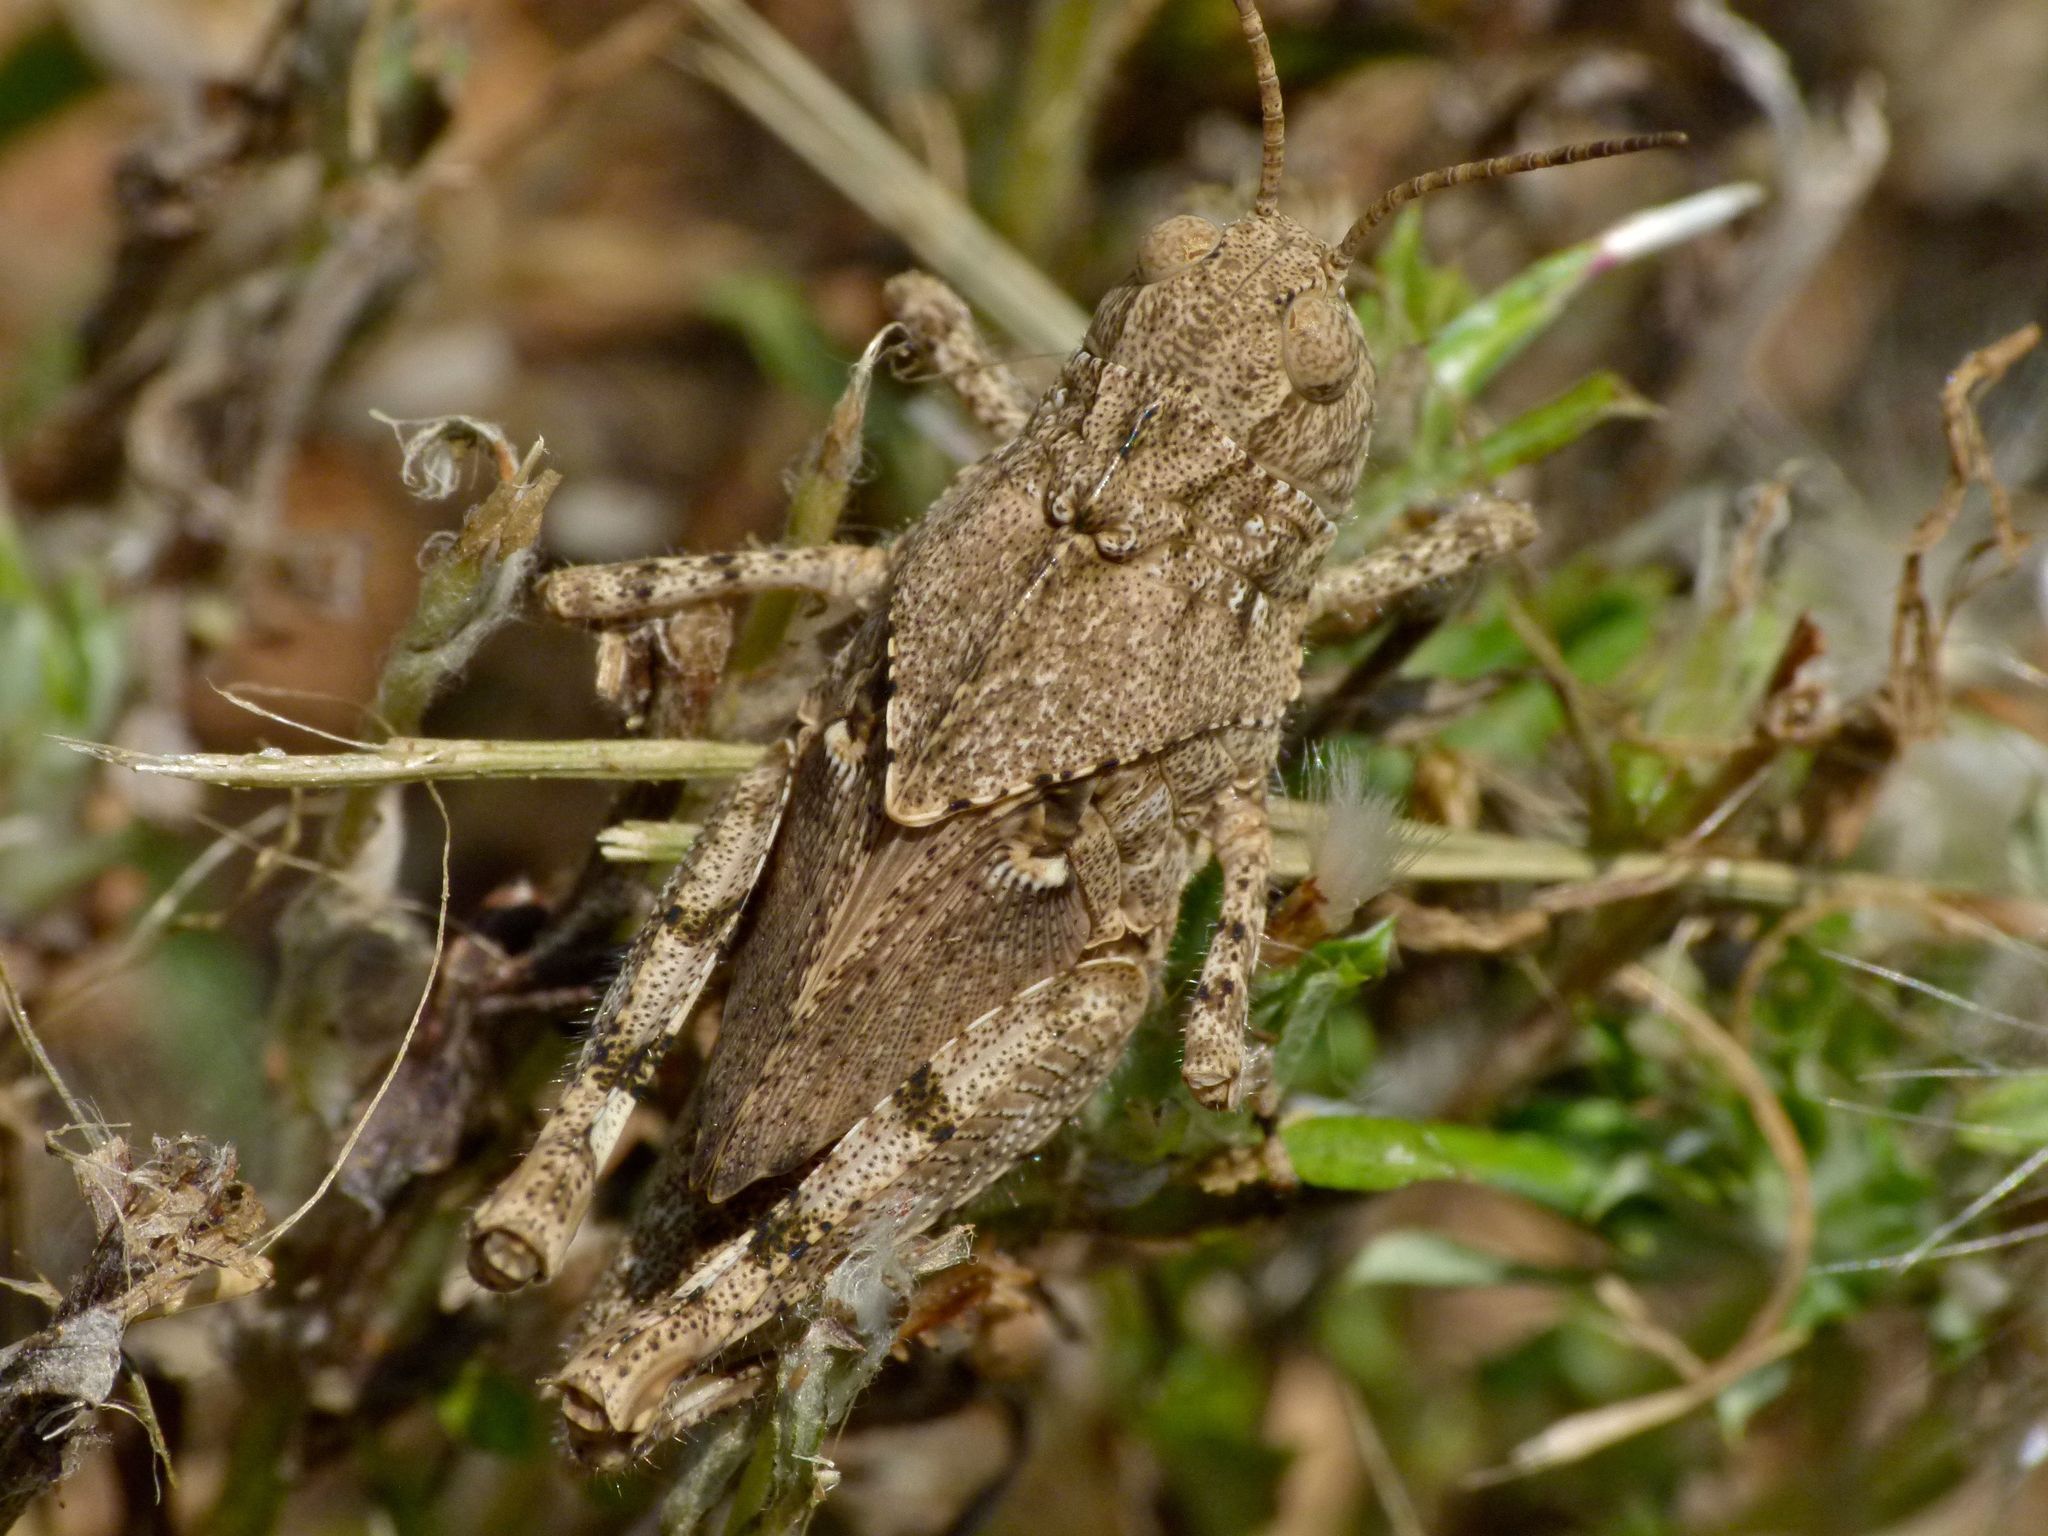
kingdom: Animalia
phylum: Arthropoda
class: Insecta
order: Orthoptera
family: Acrididae
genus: Dissosteira
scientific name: Dissosteira carolina
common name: Carolina grasshopper
